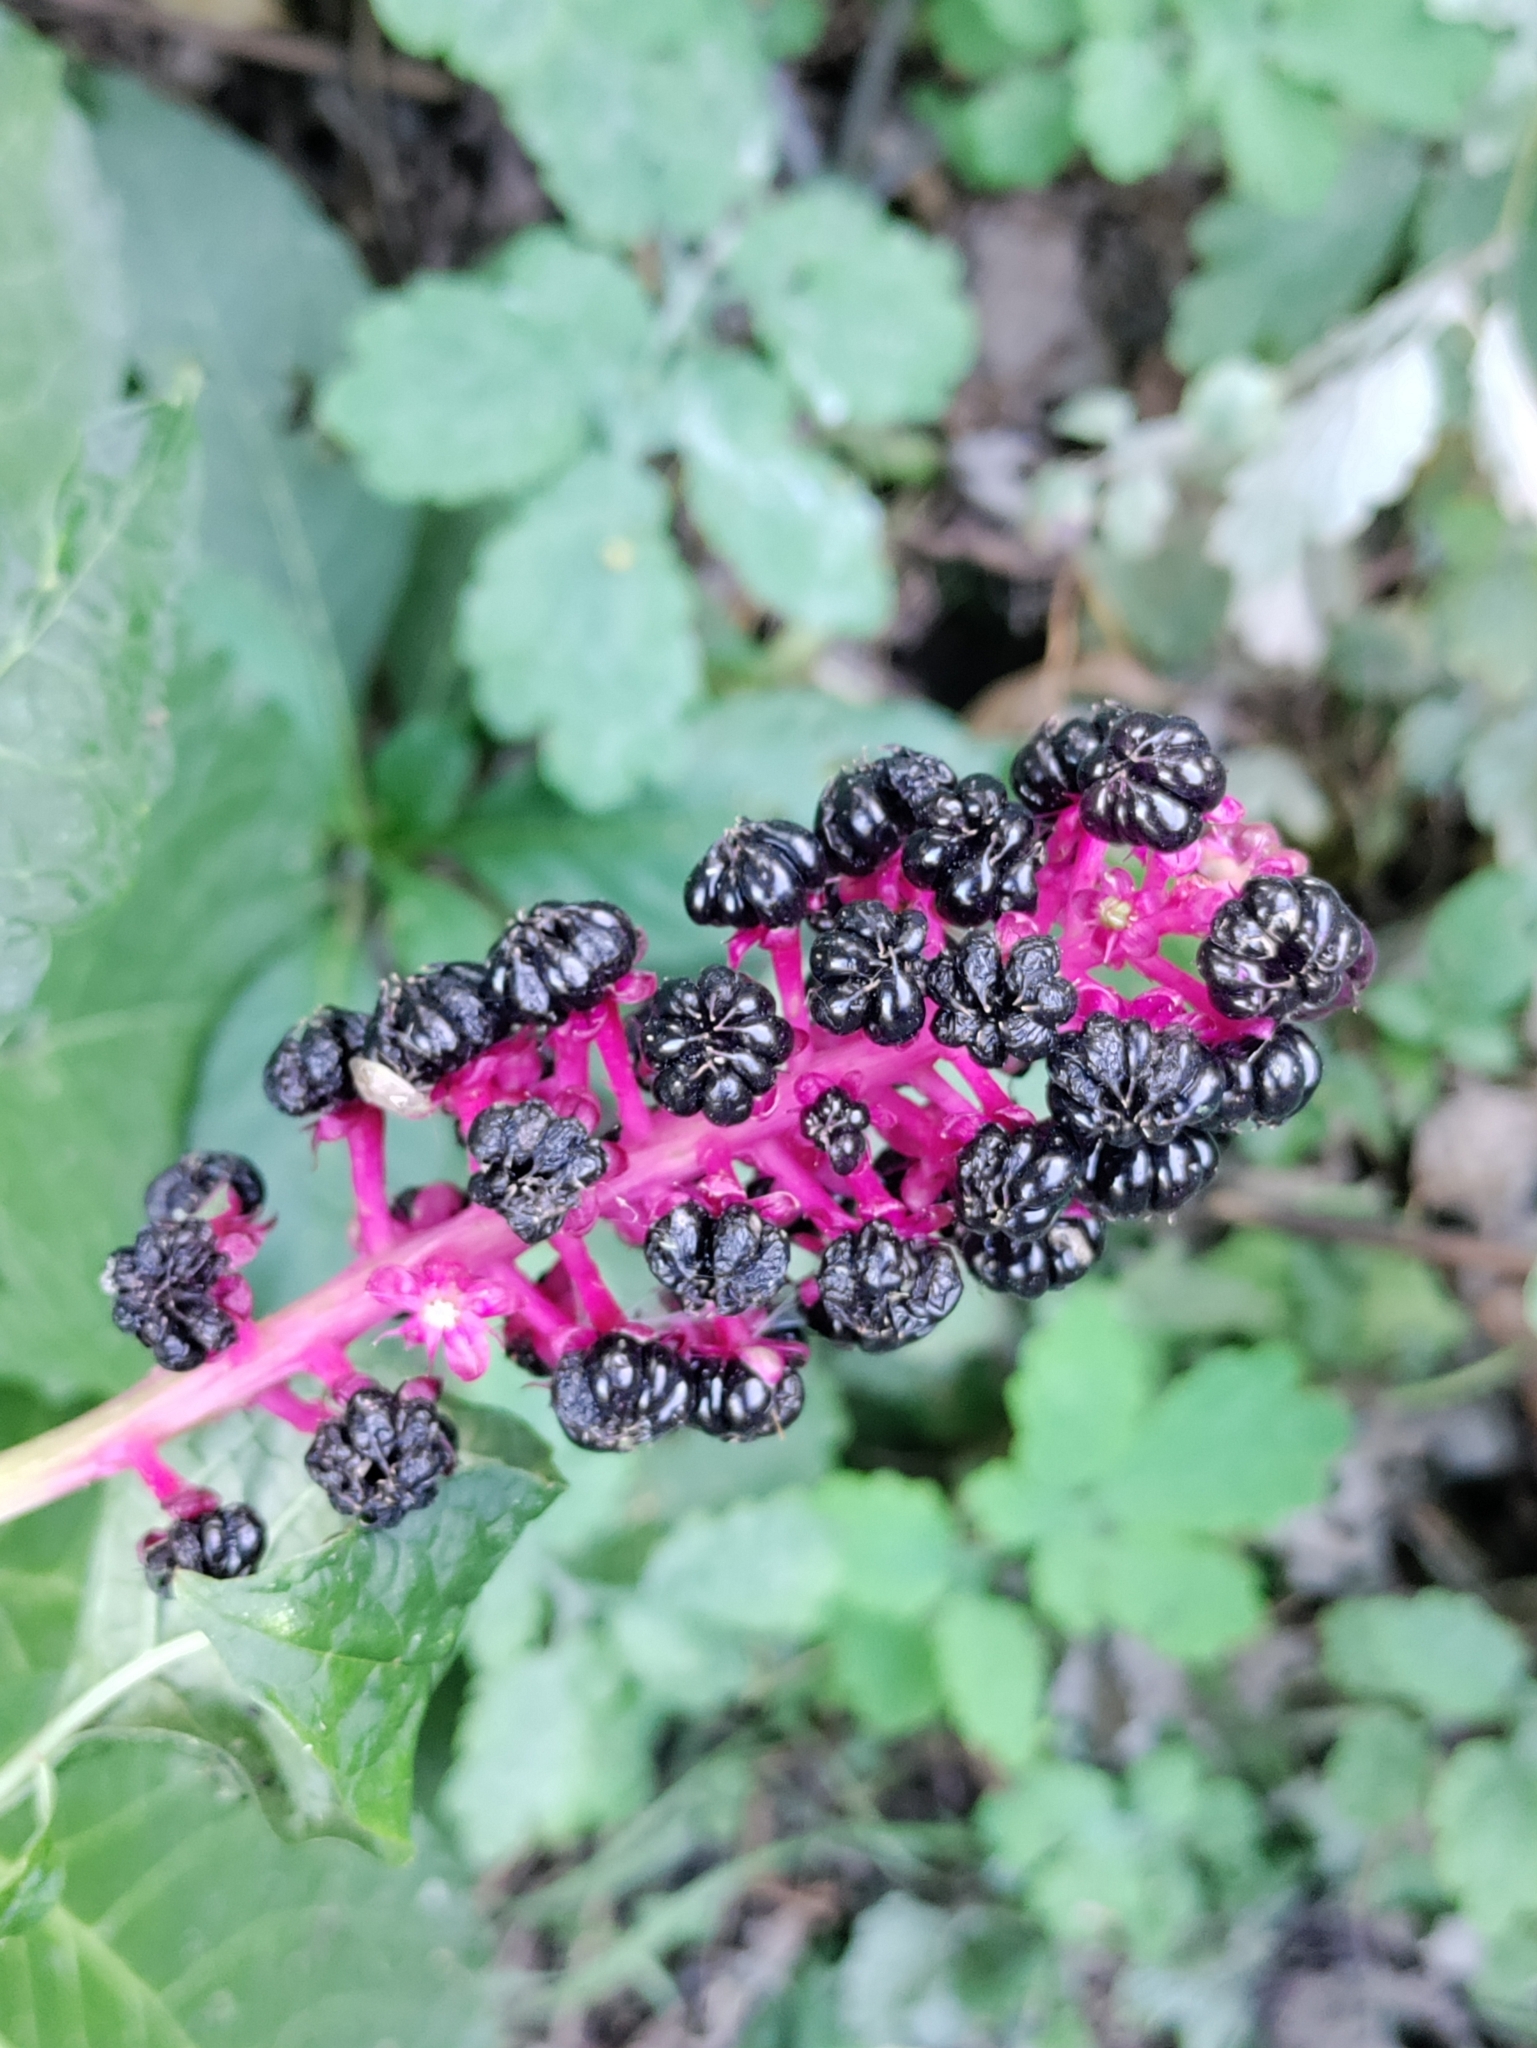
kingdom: Plantae
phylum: Tracheophyta
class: Magnoliopsida
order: Caryophyllales
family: Phytolaccaceae
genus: Phytolacca
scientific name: Phytolacca acinosa
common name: Indian pokeweed
